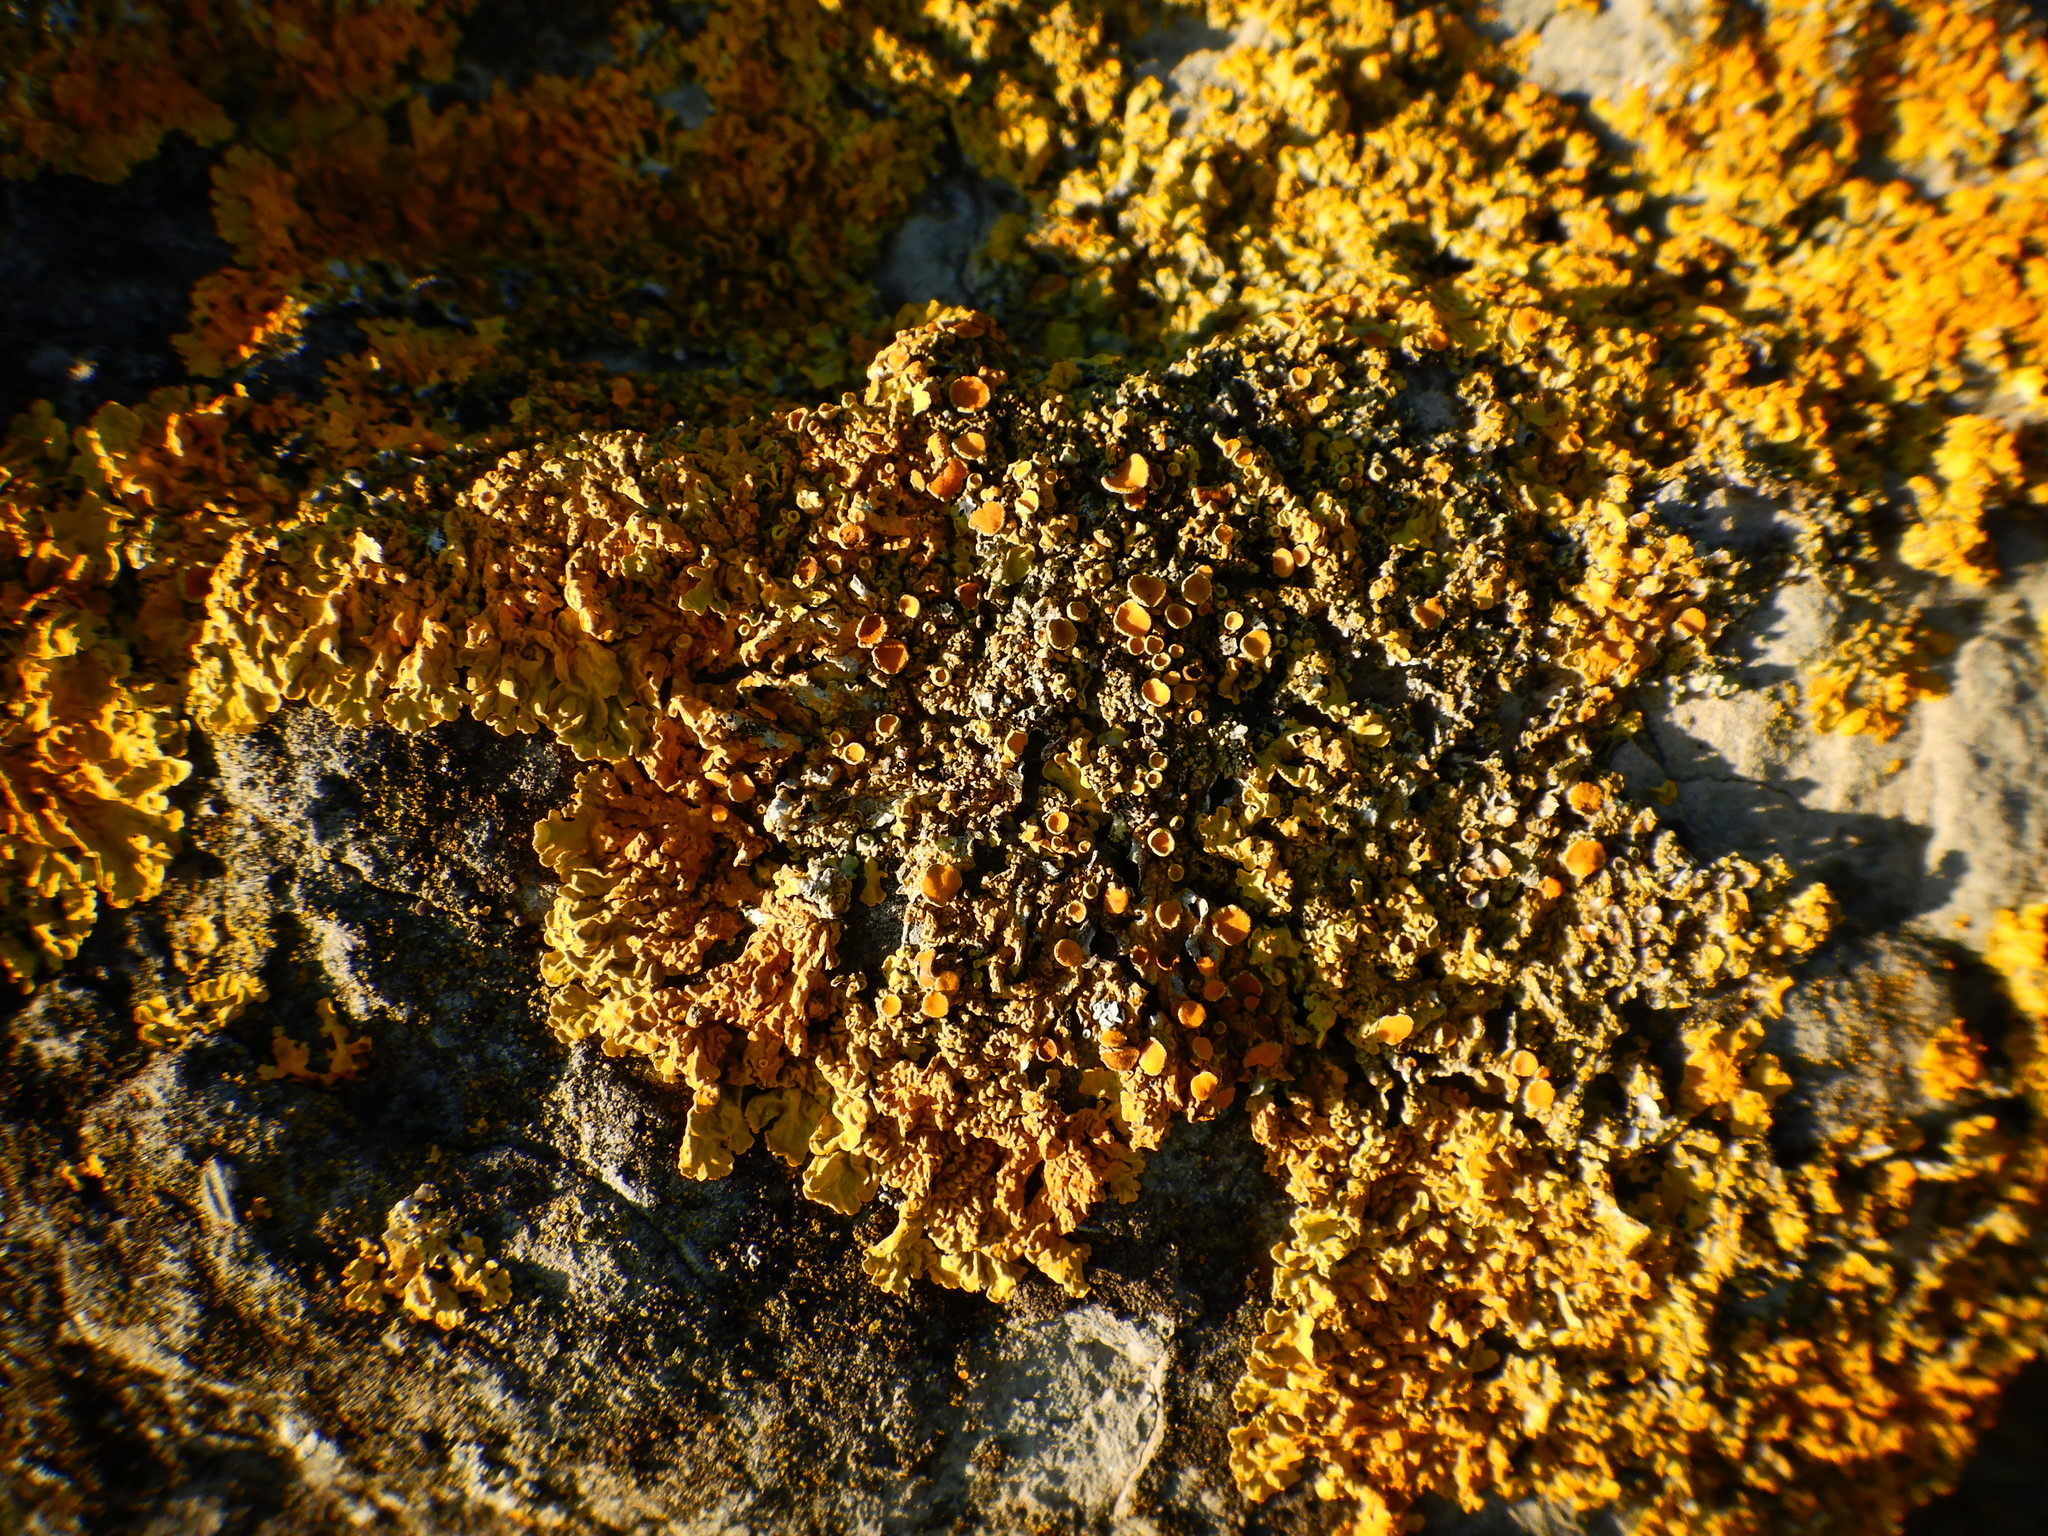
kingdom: Fungi
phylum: Ascomycota
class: Lecanoromycetes
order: Teloschistales
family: Teloschistaceae
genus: Xanthoria
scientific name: Xanthoria parietina
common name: Common orange lichen
